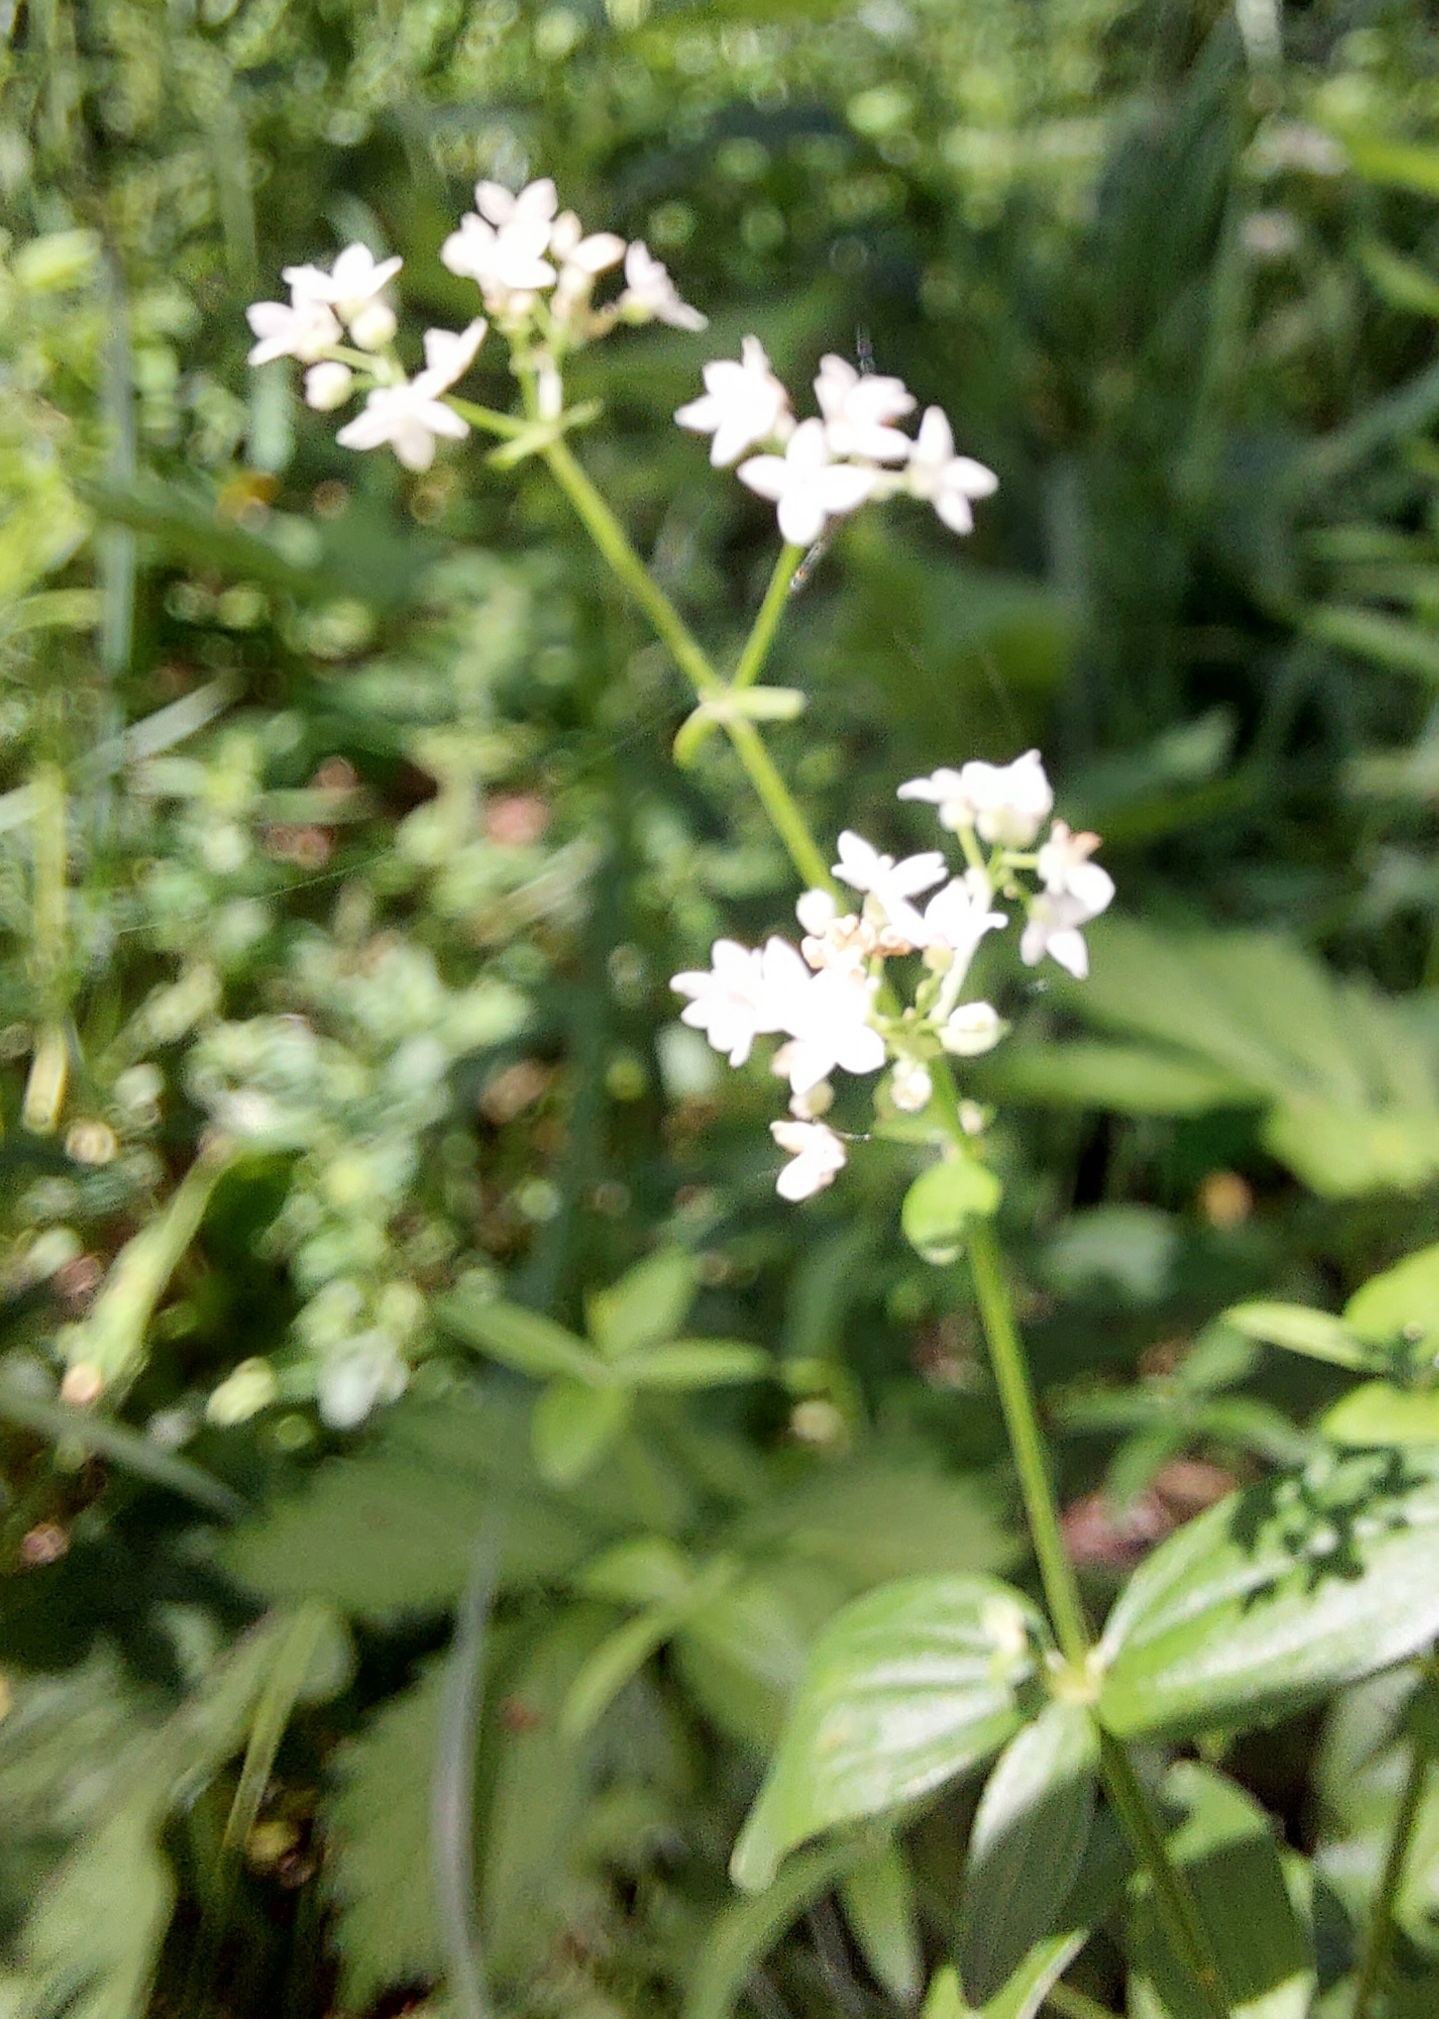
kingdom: Plantae
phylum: Tracheophyta
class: Magnoliopsida
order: Gentianales
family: Rubiaceae
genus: Galium
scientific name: Galium boreale
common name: Northern bedstraw
